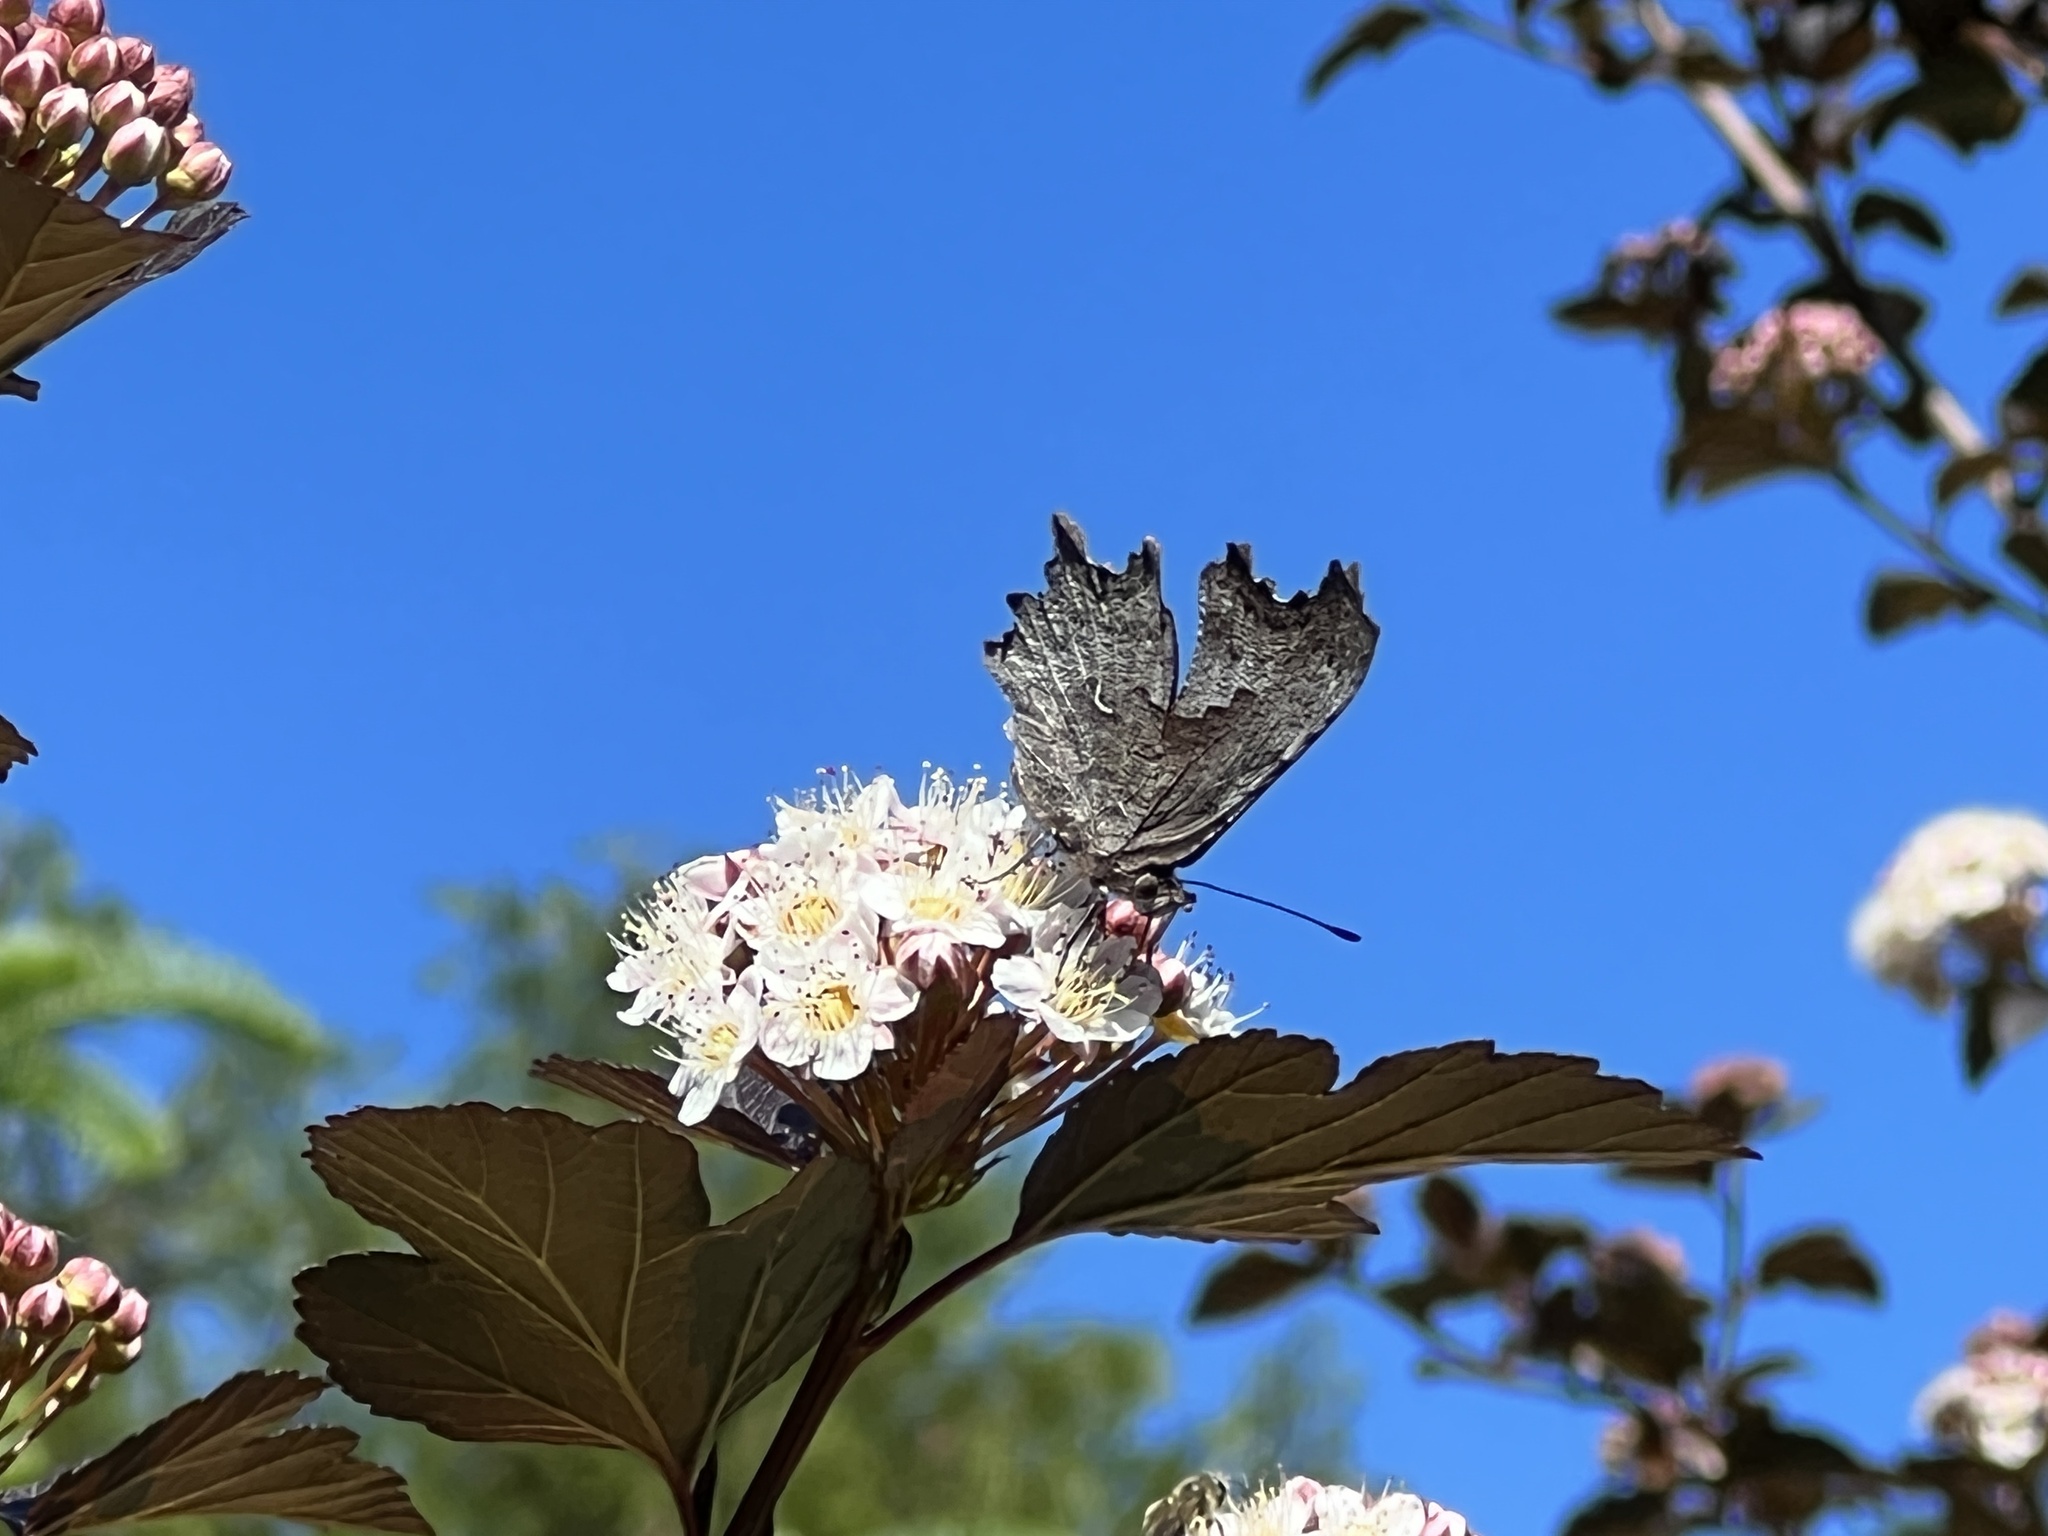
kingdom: Animalia
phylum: Arthropoda
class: Insecta
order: Lepidoptera
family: Nymphalidae
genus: Polygonia
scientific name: Polygonia gracilis
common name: Hoary comma
